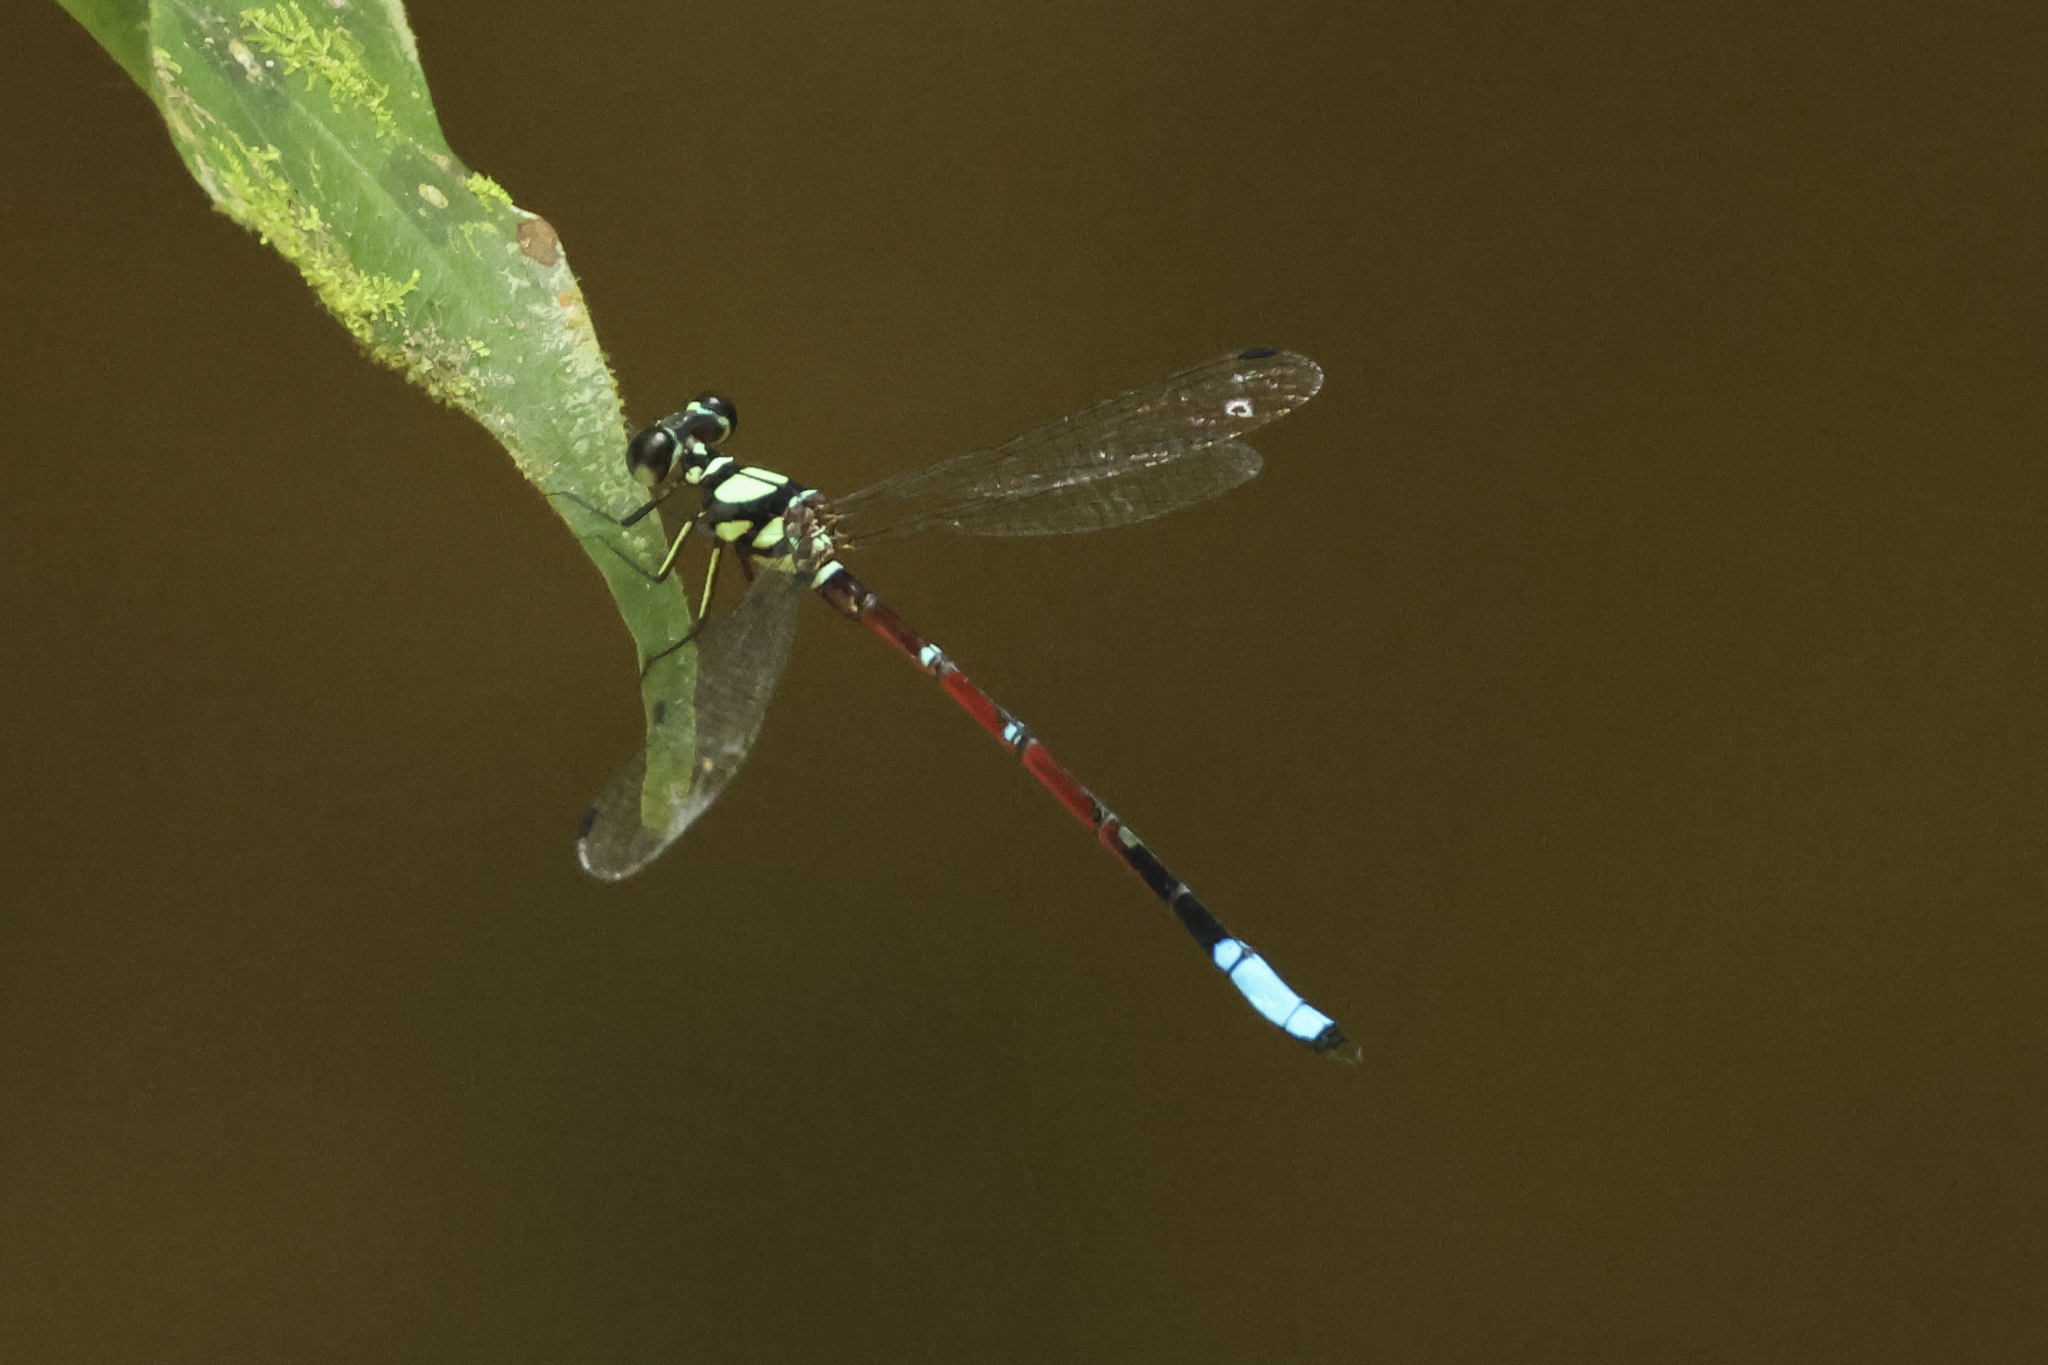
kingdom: Animalia
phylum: Arthropoda
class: Insecta
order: Odonata
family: Philosinidae
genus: Rhinagrion
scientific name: Rhinagrion elopurae
